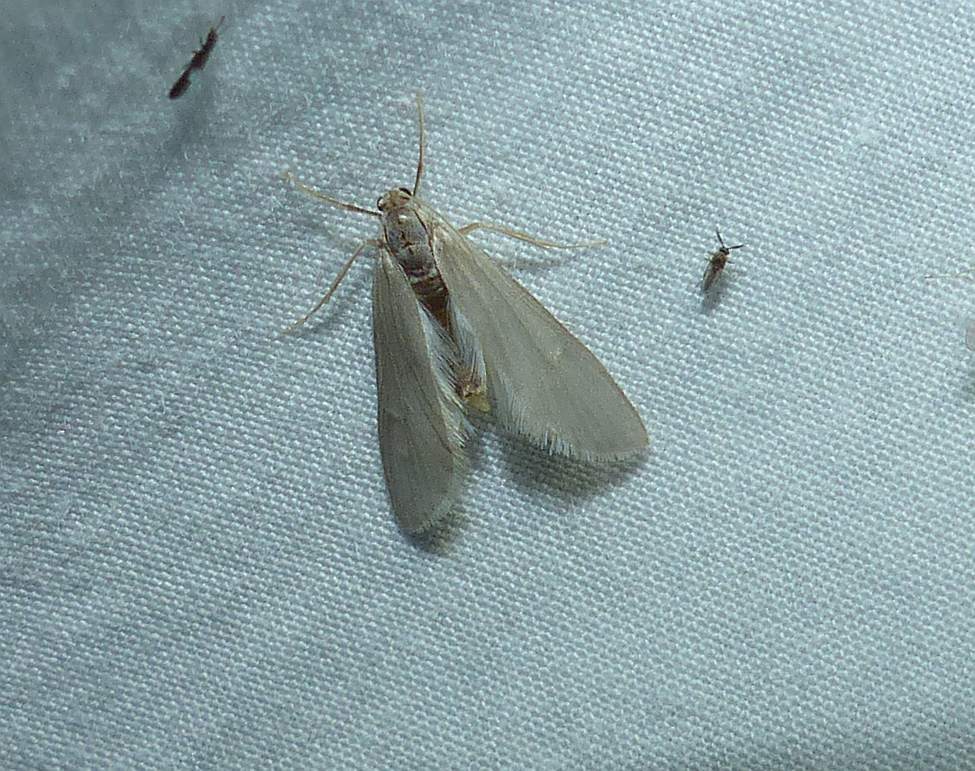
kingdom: Animalia
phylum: Arthropoda
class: Insecta
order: Lepidoptera
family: Crambidae
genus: Acentria
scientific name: Acentria ephemerella
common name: European water moth
